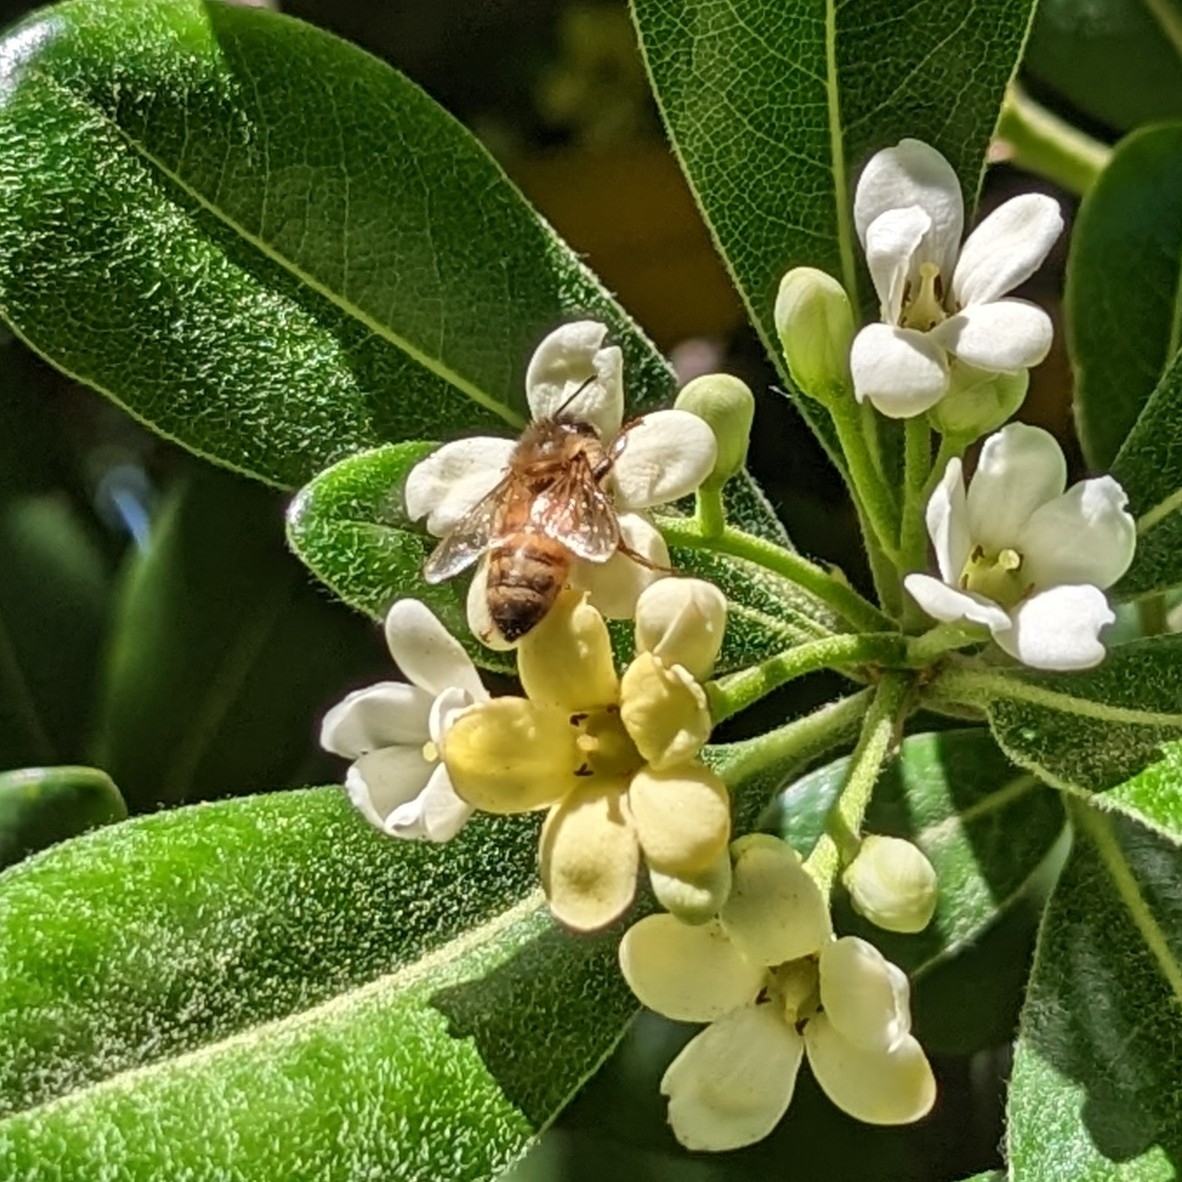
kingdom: Animalia
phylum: Arthropoda
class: Insecta
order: Hymenoptera
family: Apidae
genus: Apis
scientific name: Apis mellifera
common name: Honey bee
